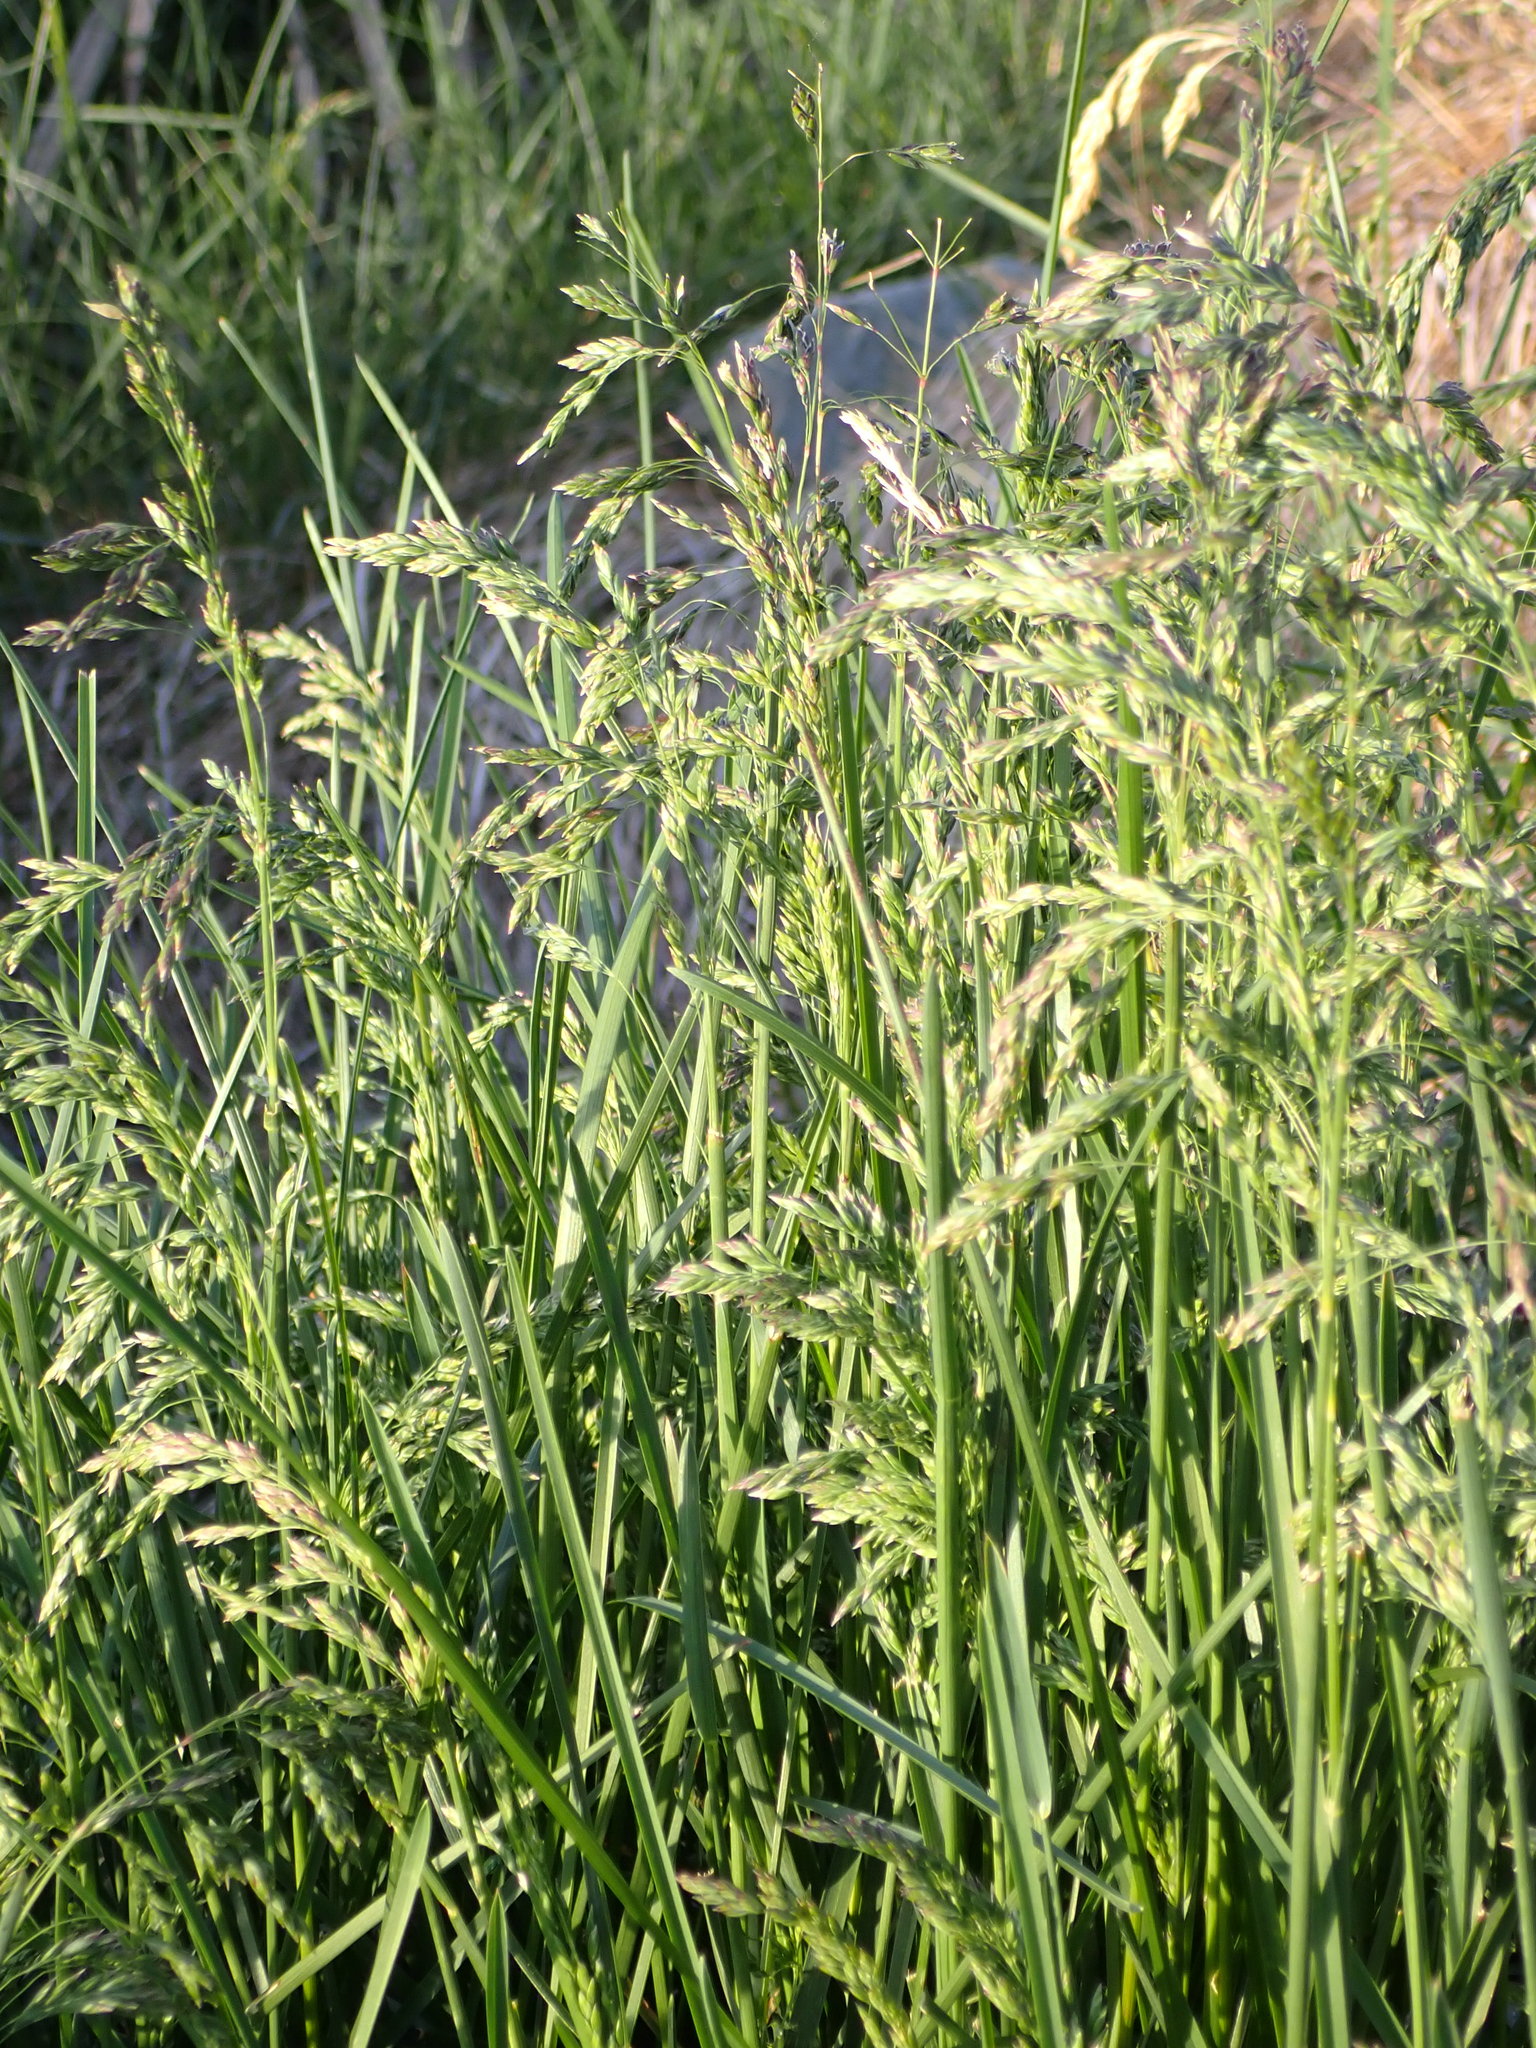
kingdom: Plantae
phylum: Tracheophyta
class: Liliopsida
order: Poales
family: Poaceae
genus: Dactylis
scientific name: Dactylis glomerata
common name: Orchardgrass
